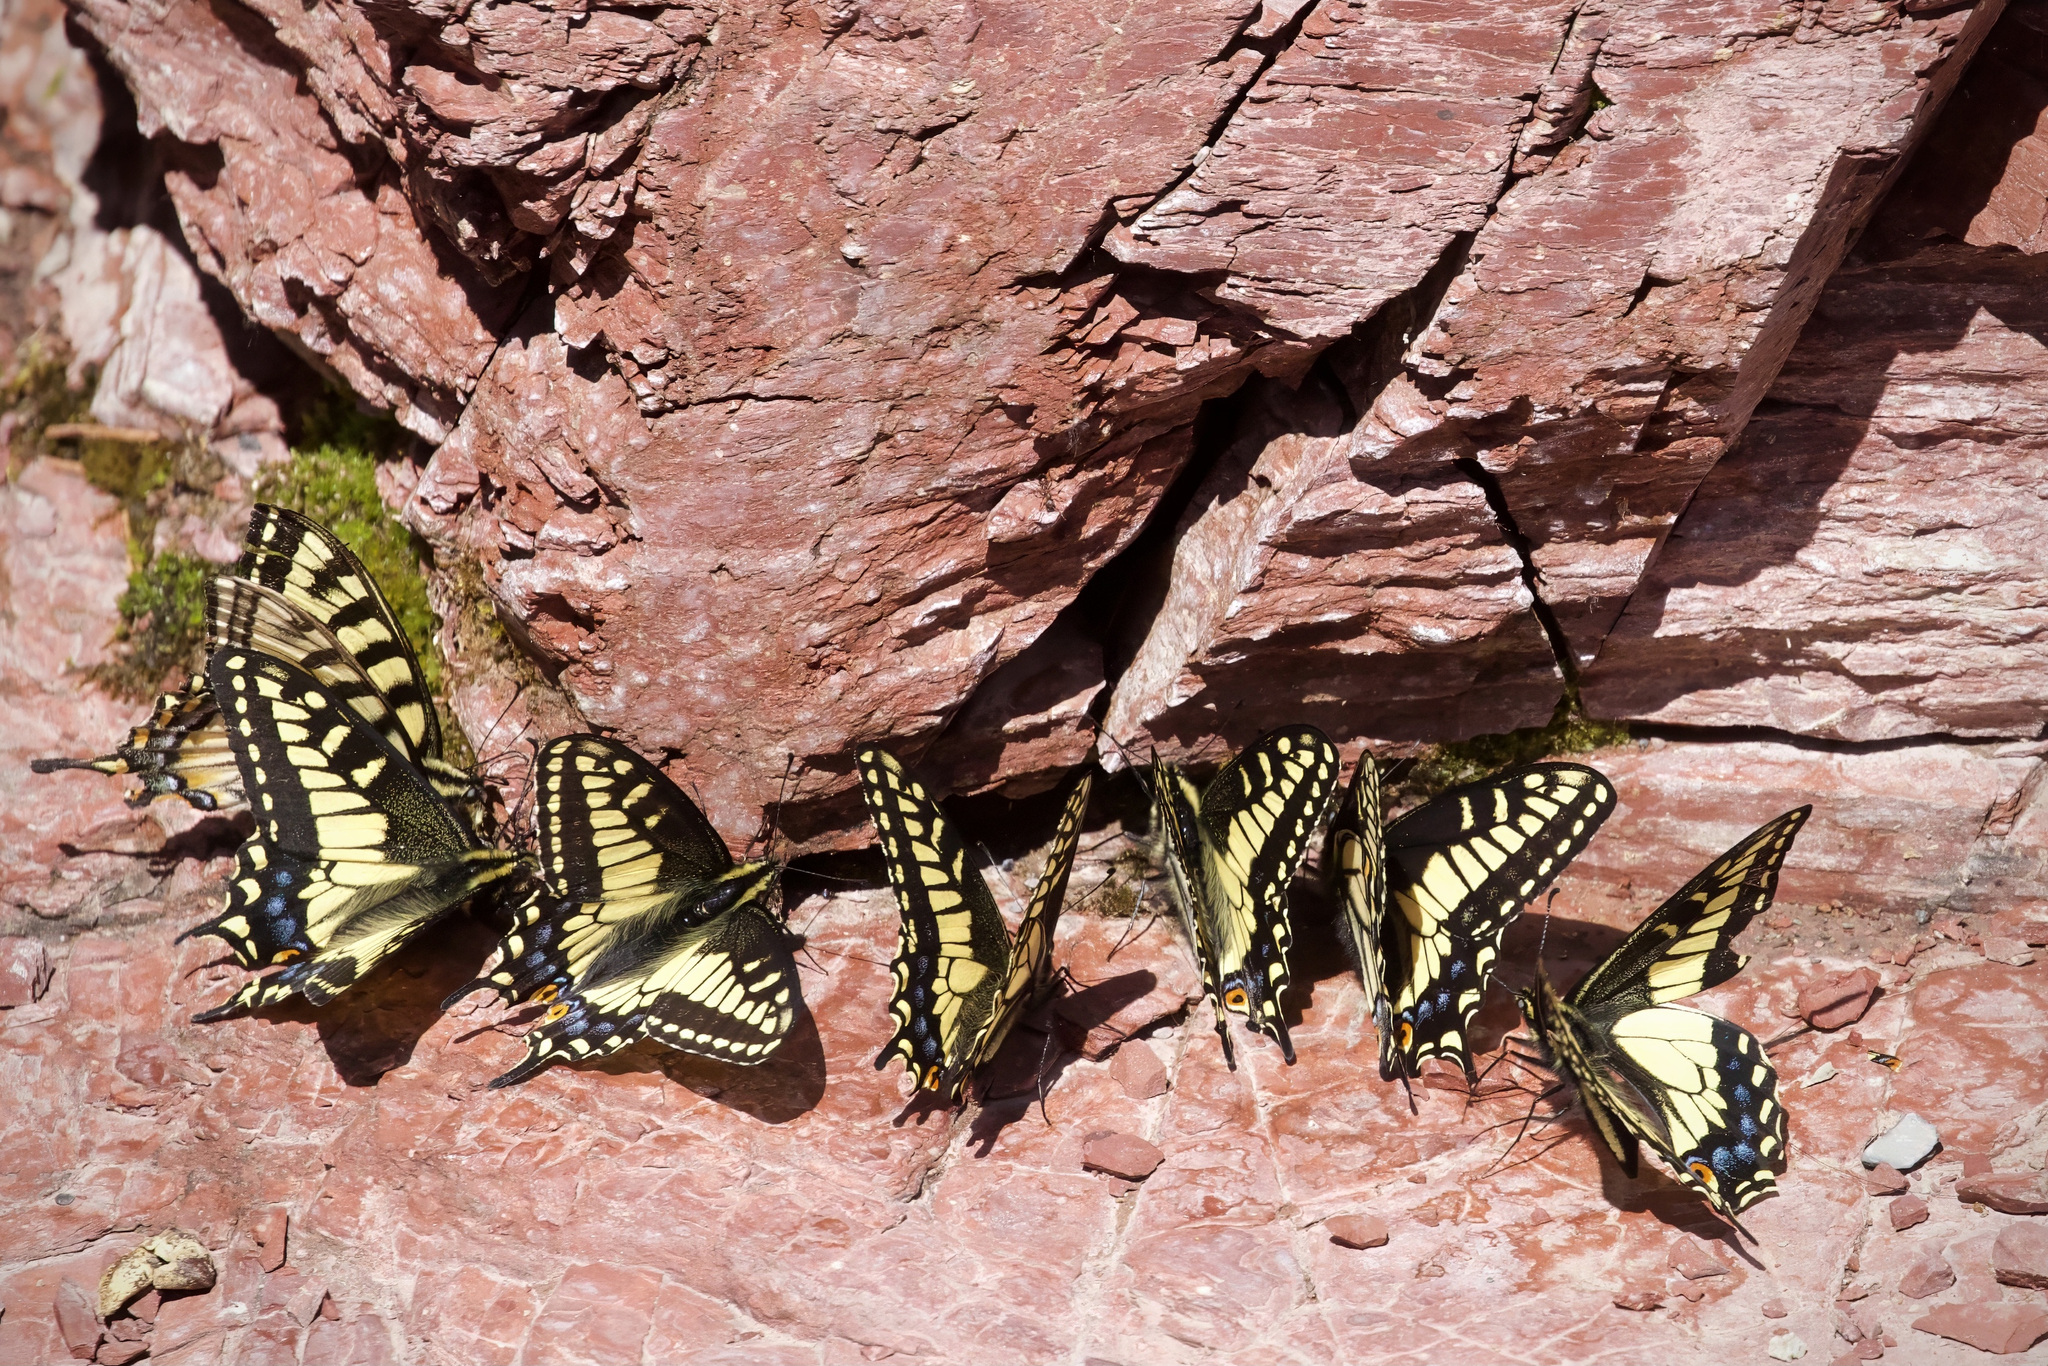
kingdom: Animalia
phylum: Arthropoda
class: Insecta
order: Lepidoptera
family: Papilionidae
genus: Papilio
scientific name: Papilio zelicaon
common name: Anise swallowtail
